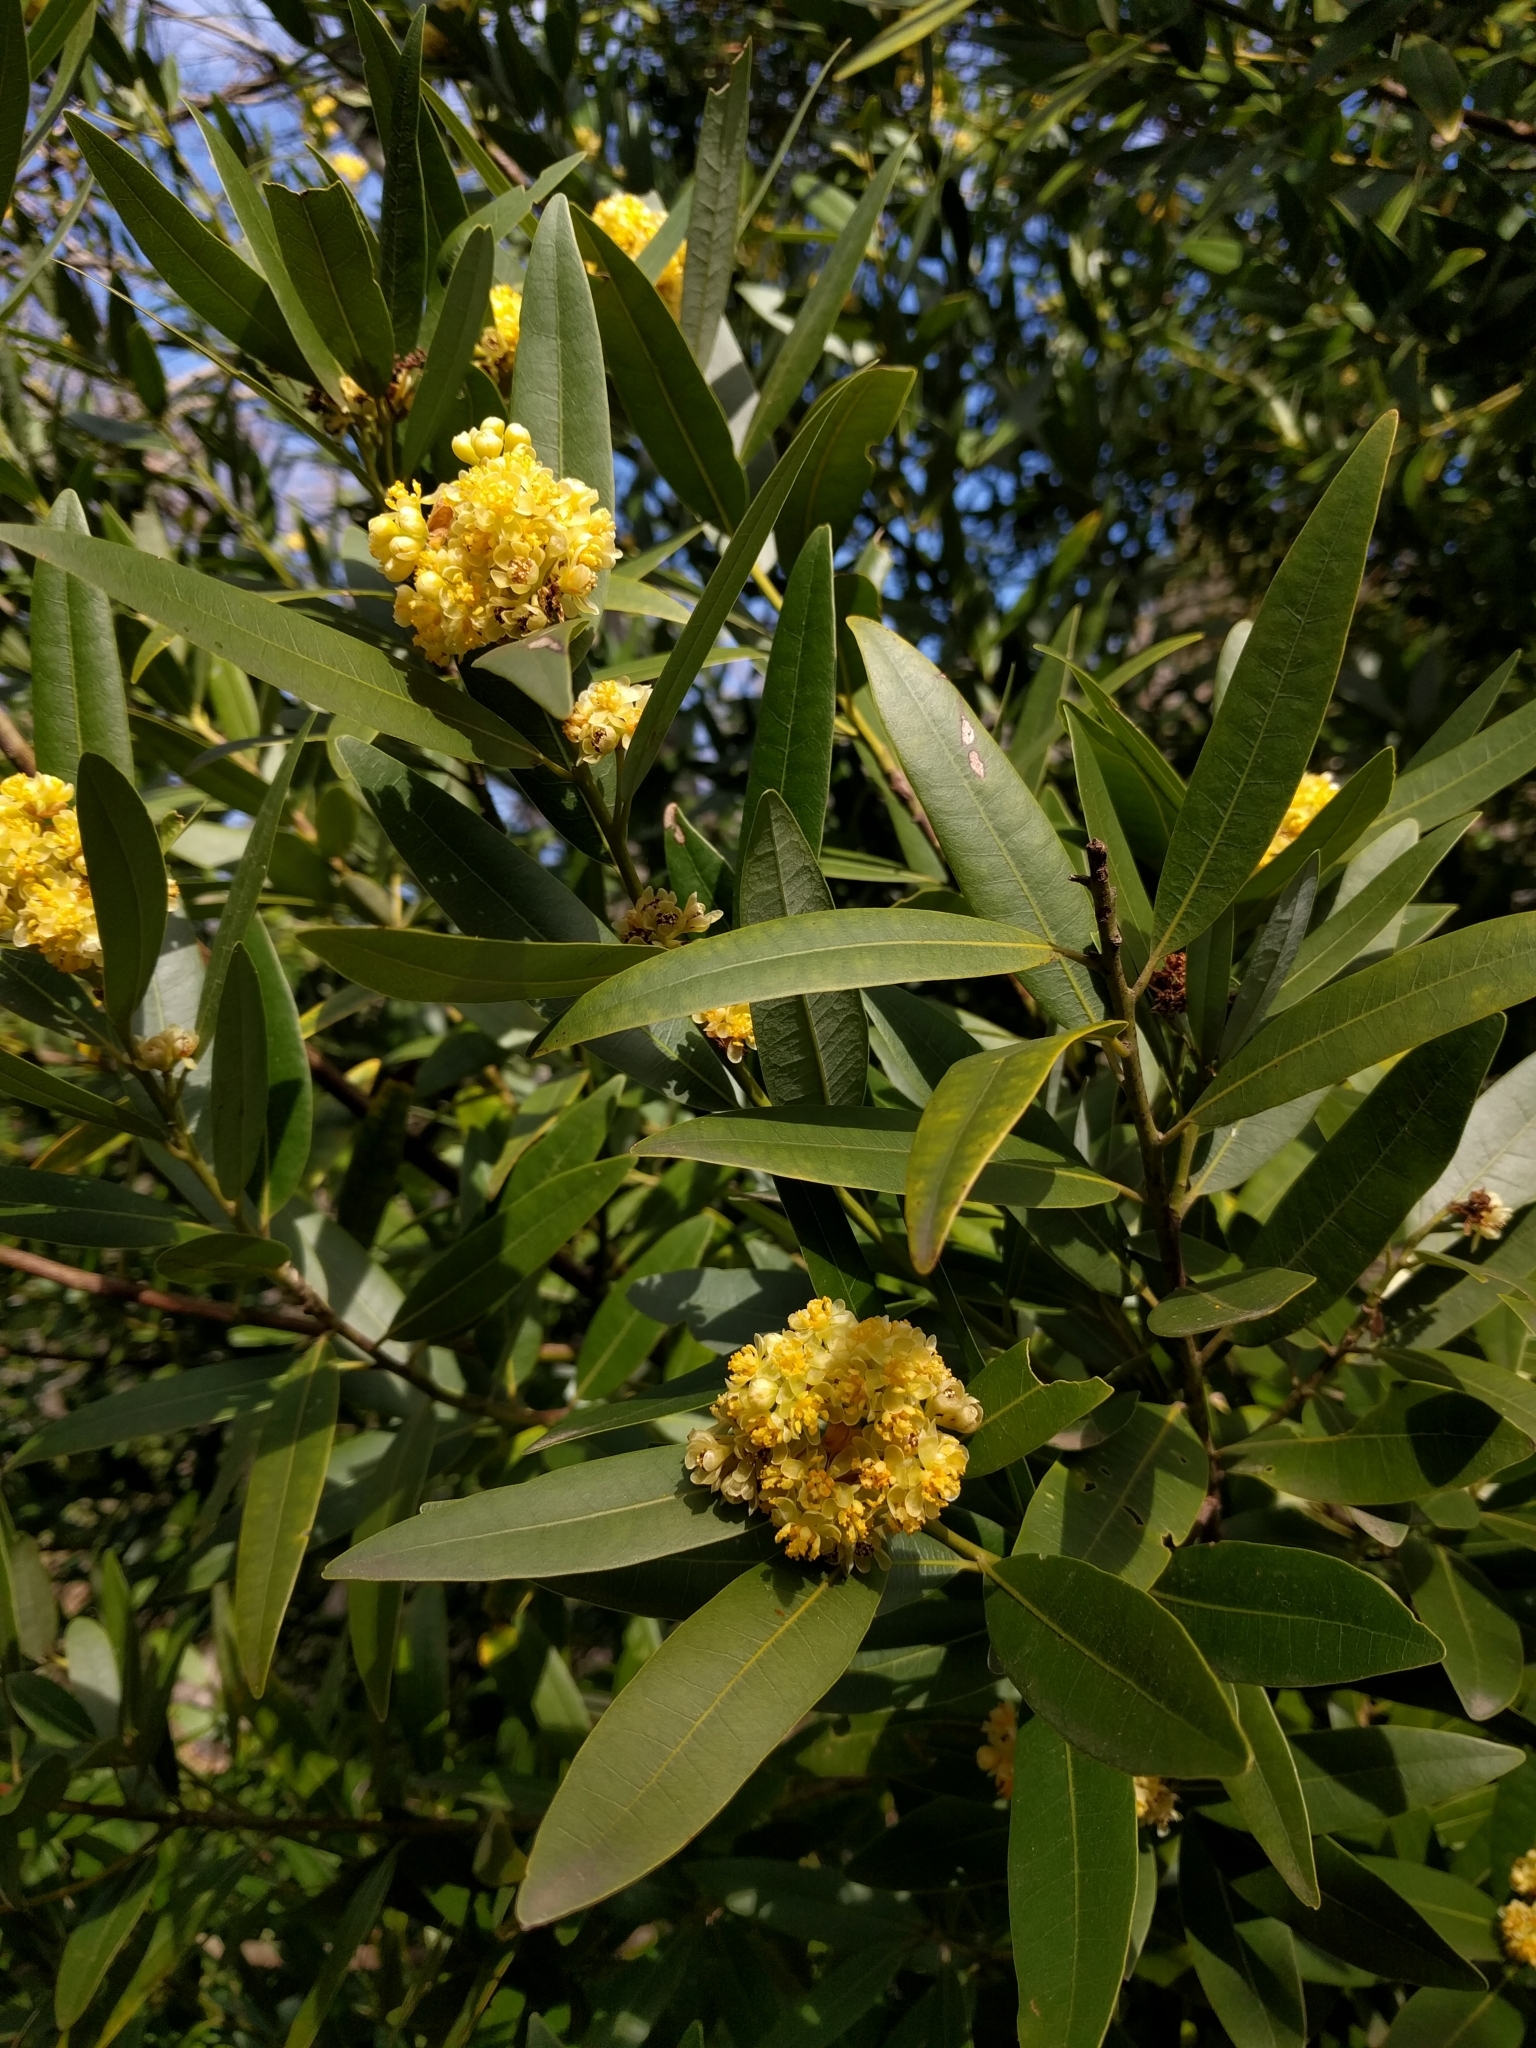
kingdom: Plantae
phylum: Tracheophyta
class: Magnoliopsida
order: Laurales
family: Lauraceae
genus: Umbellularia
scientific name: Umbellularia californica
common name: California bay
